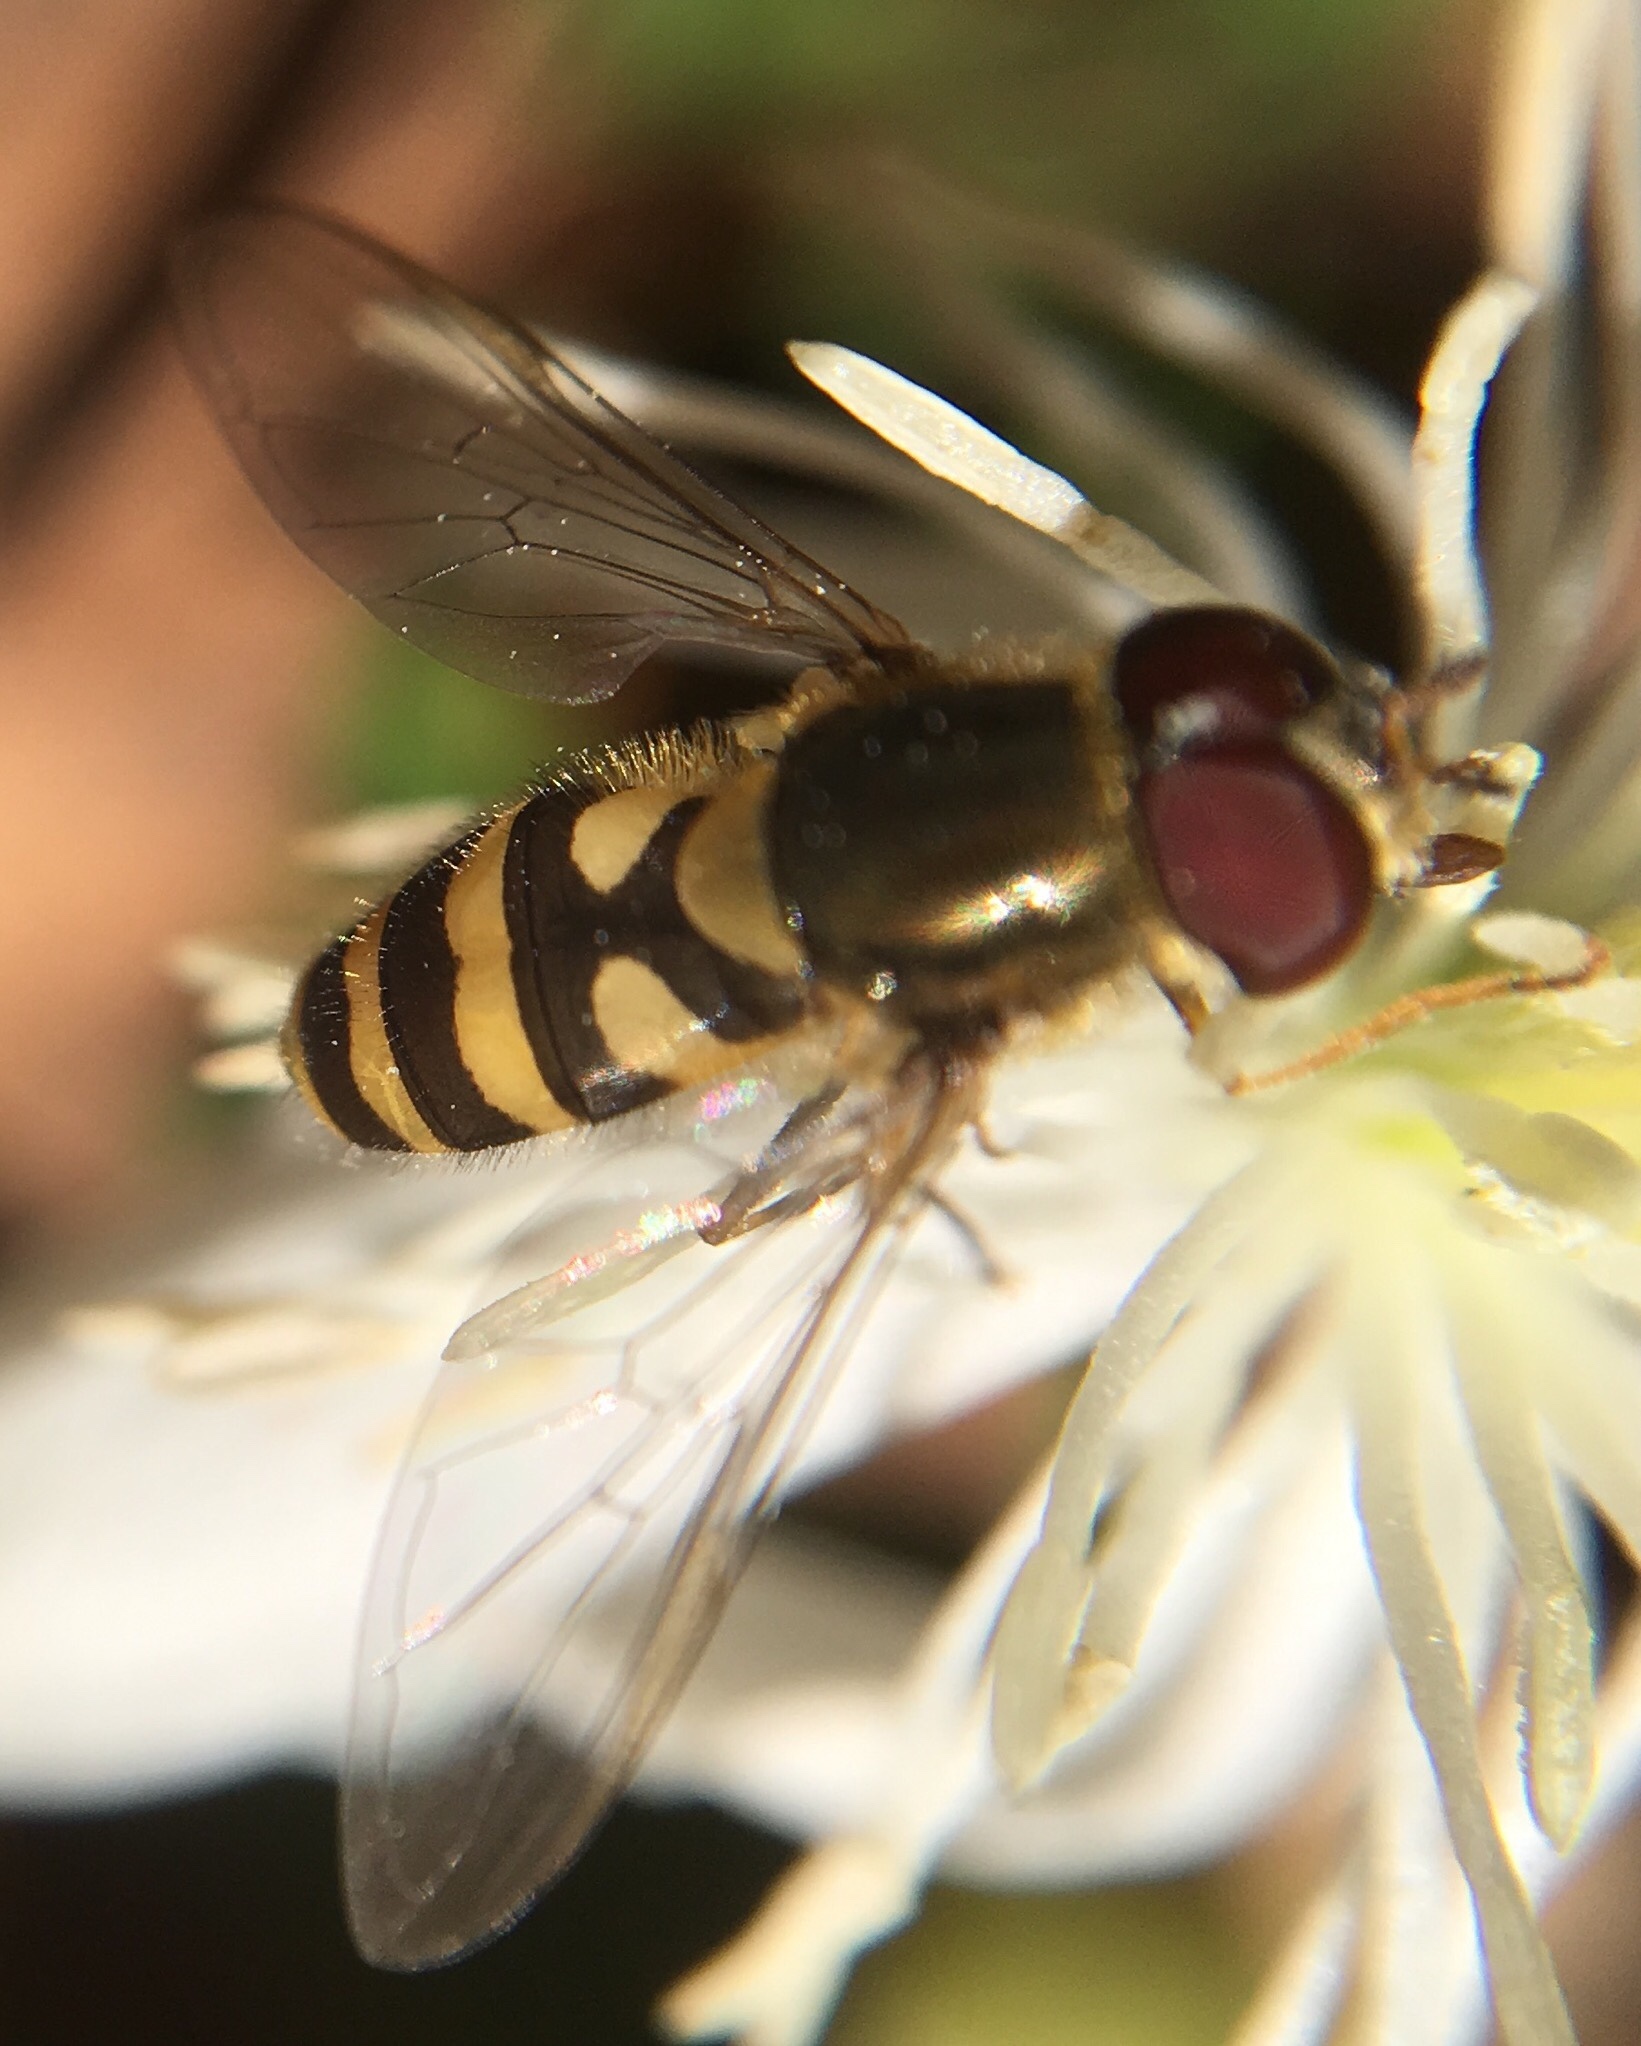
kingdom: Animalia
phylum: Arthropoda
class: Insecta
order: Diptera
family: Syrphidae
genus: Syrphus
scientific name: Syrphus
